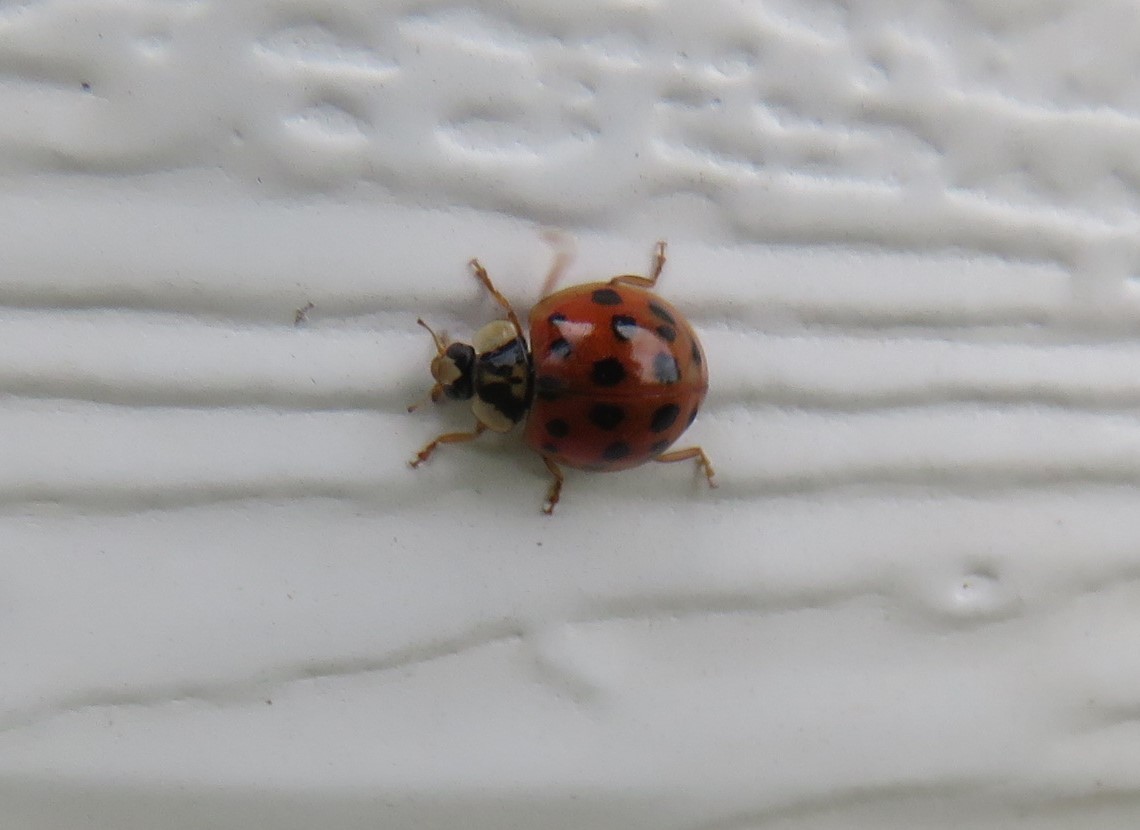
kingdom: Animalia
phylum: Arthropoda
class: Insecta
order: Coleoptera
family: Coccinellidae
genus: Harmonia
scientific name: Harmonia axyridis
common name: Harlequin ladybird
